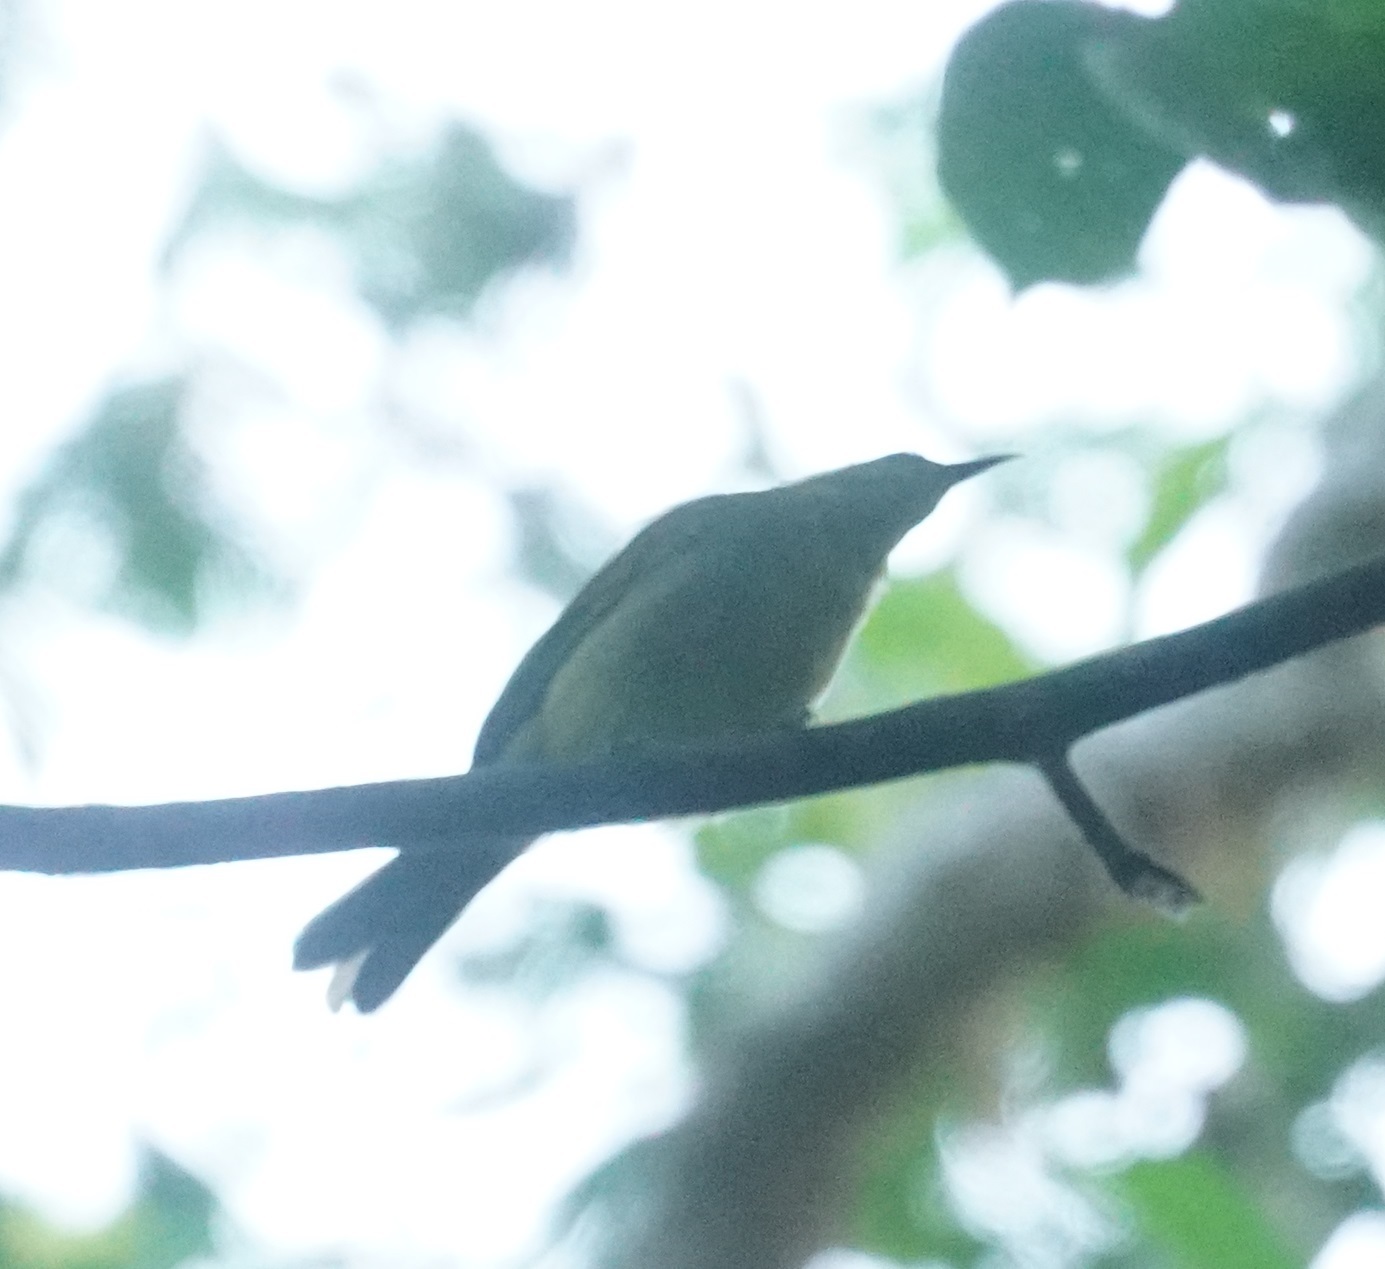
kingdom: Animalia
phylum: Chordata
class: Aves
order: Passeriformes
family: Meliphagidae
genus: Stomiopera
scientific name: Stomiopera flava
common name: Yellow honeyeater
